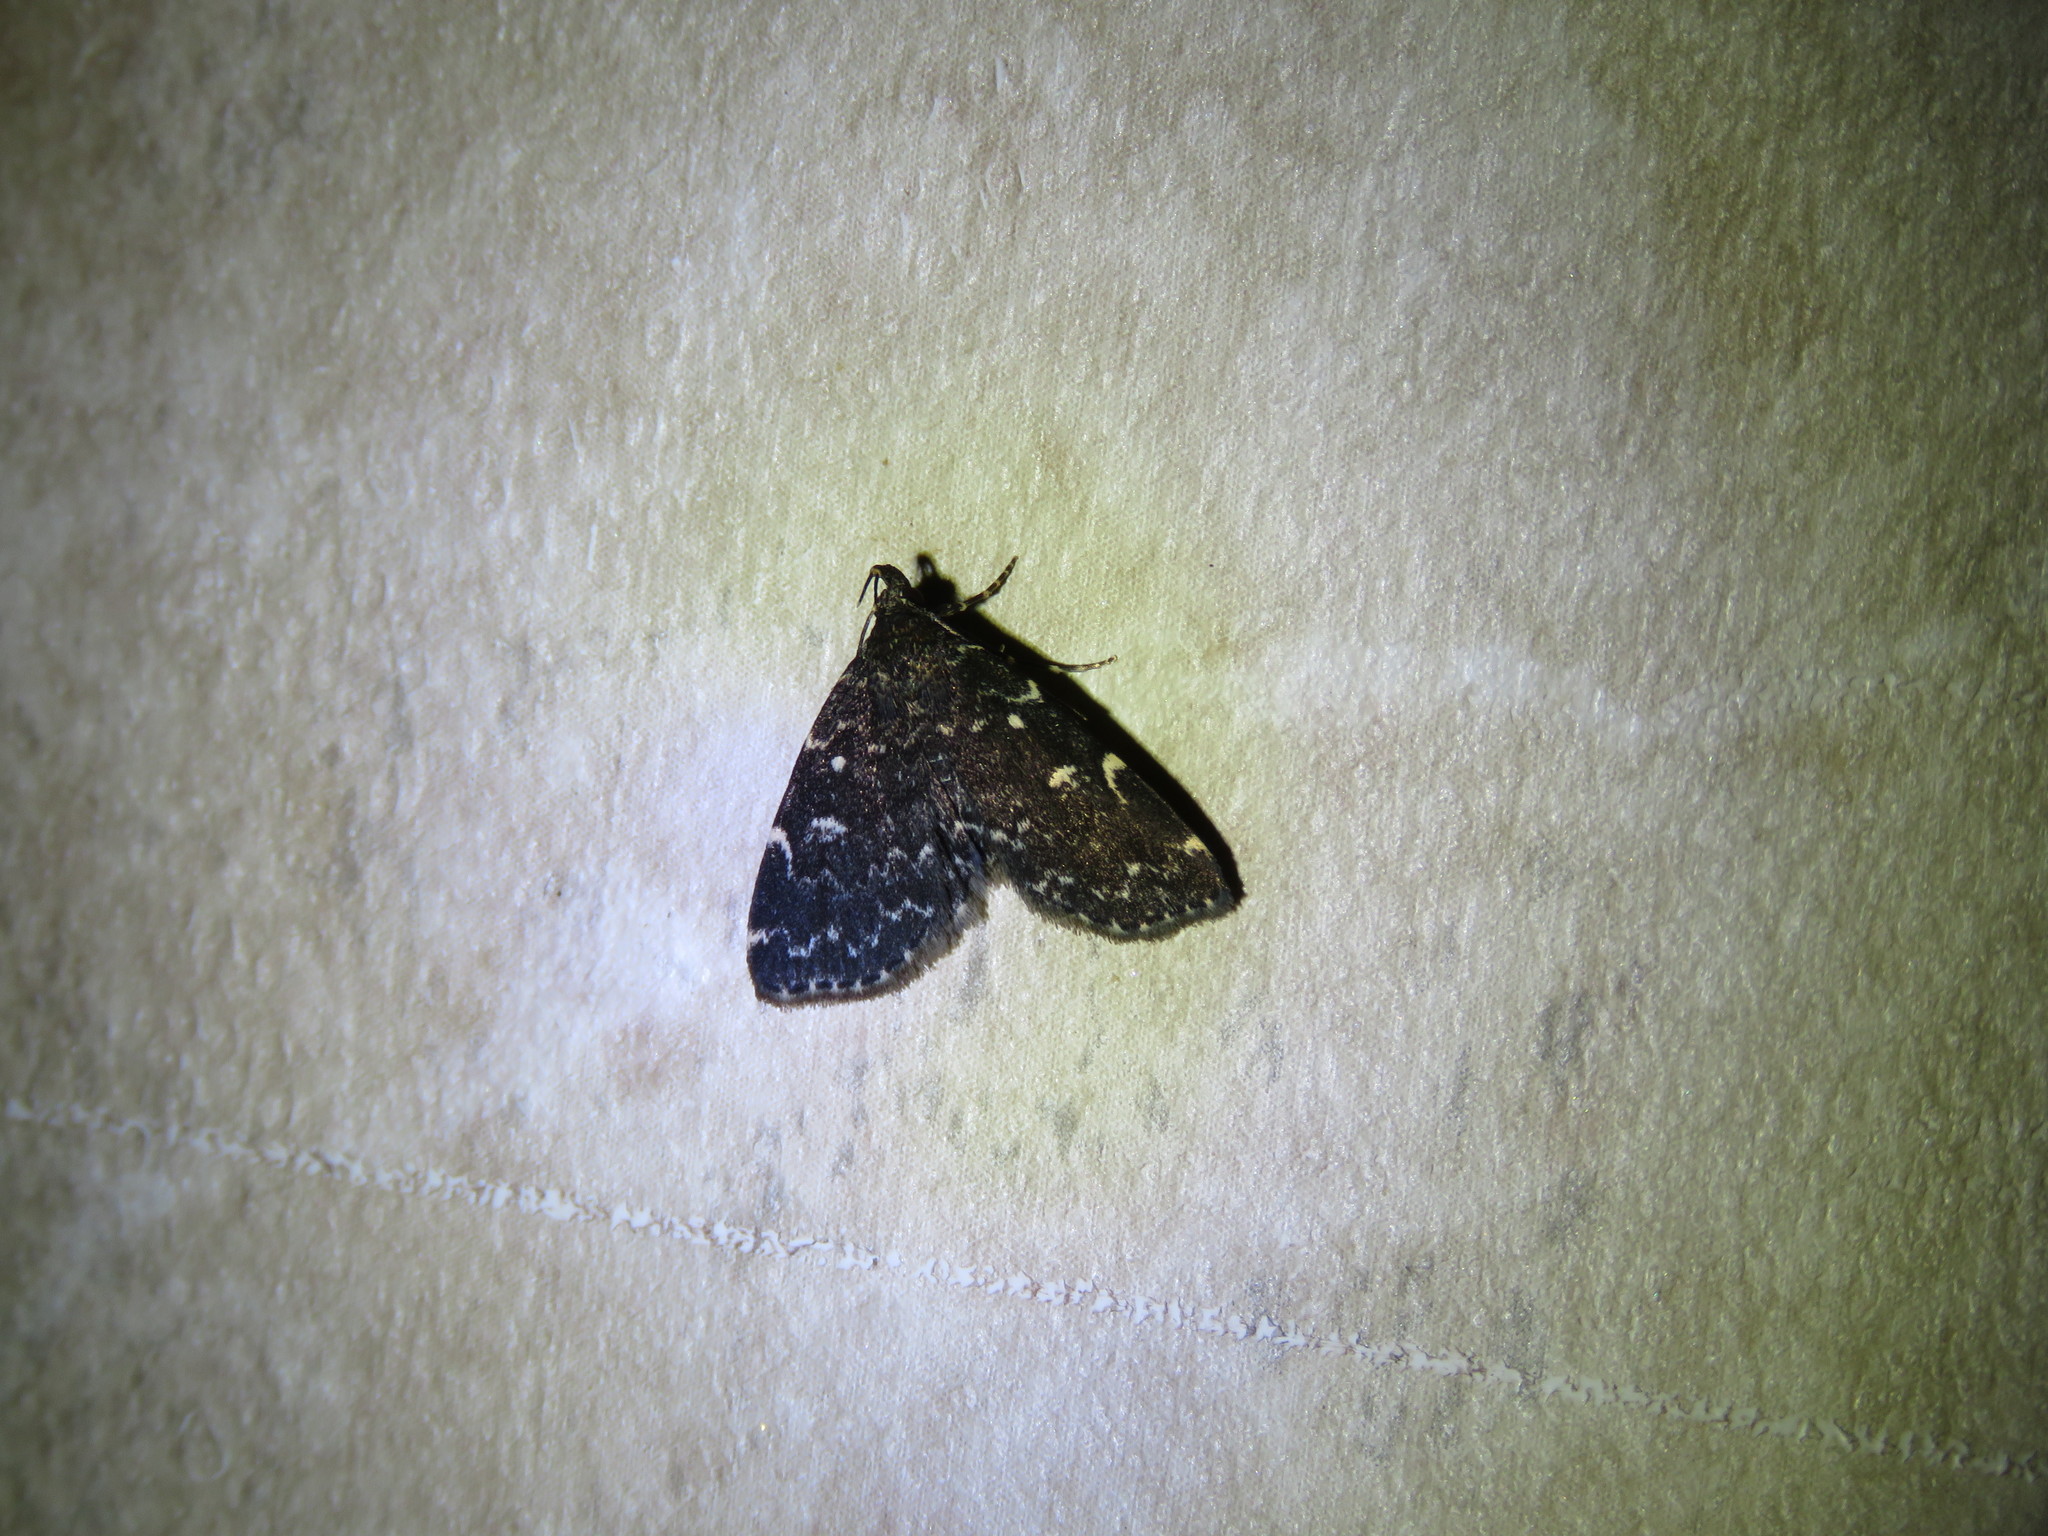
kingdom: Animalia
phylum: Arthropoda
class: Insecta
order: Lepidoptera
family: Erebidae
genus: Idia
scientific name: Idia lubricalis
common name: Twin-striped tabby
